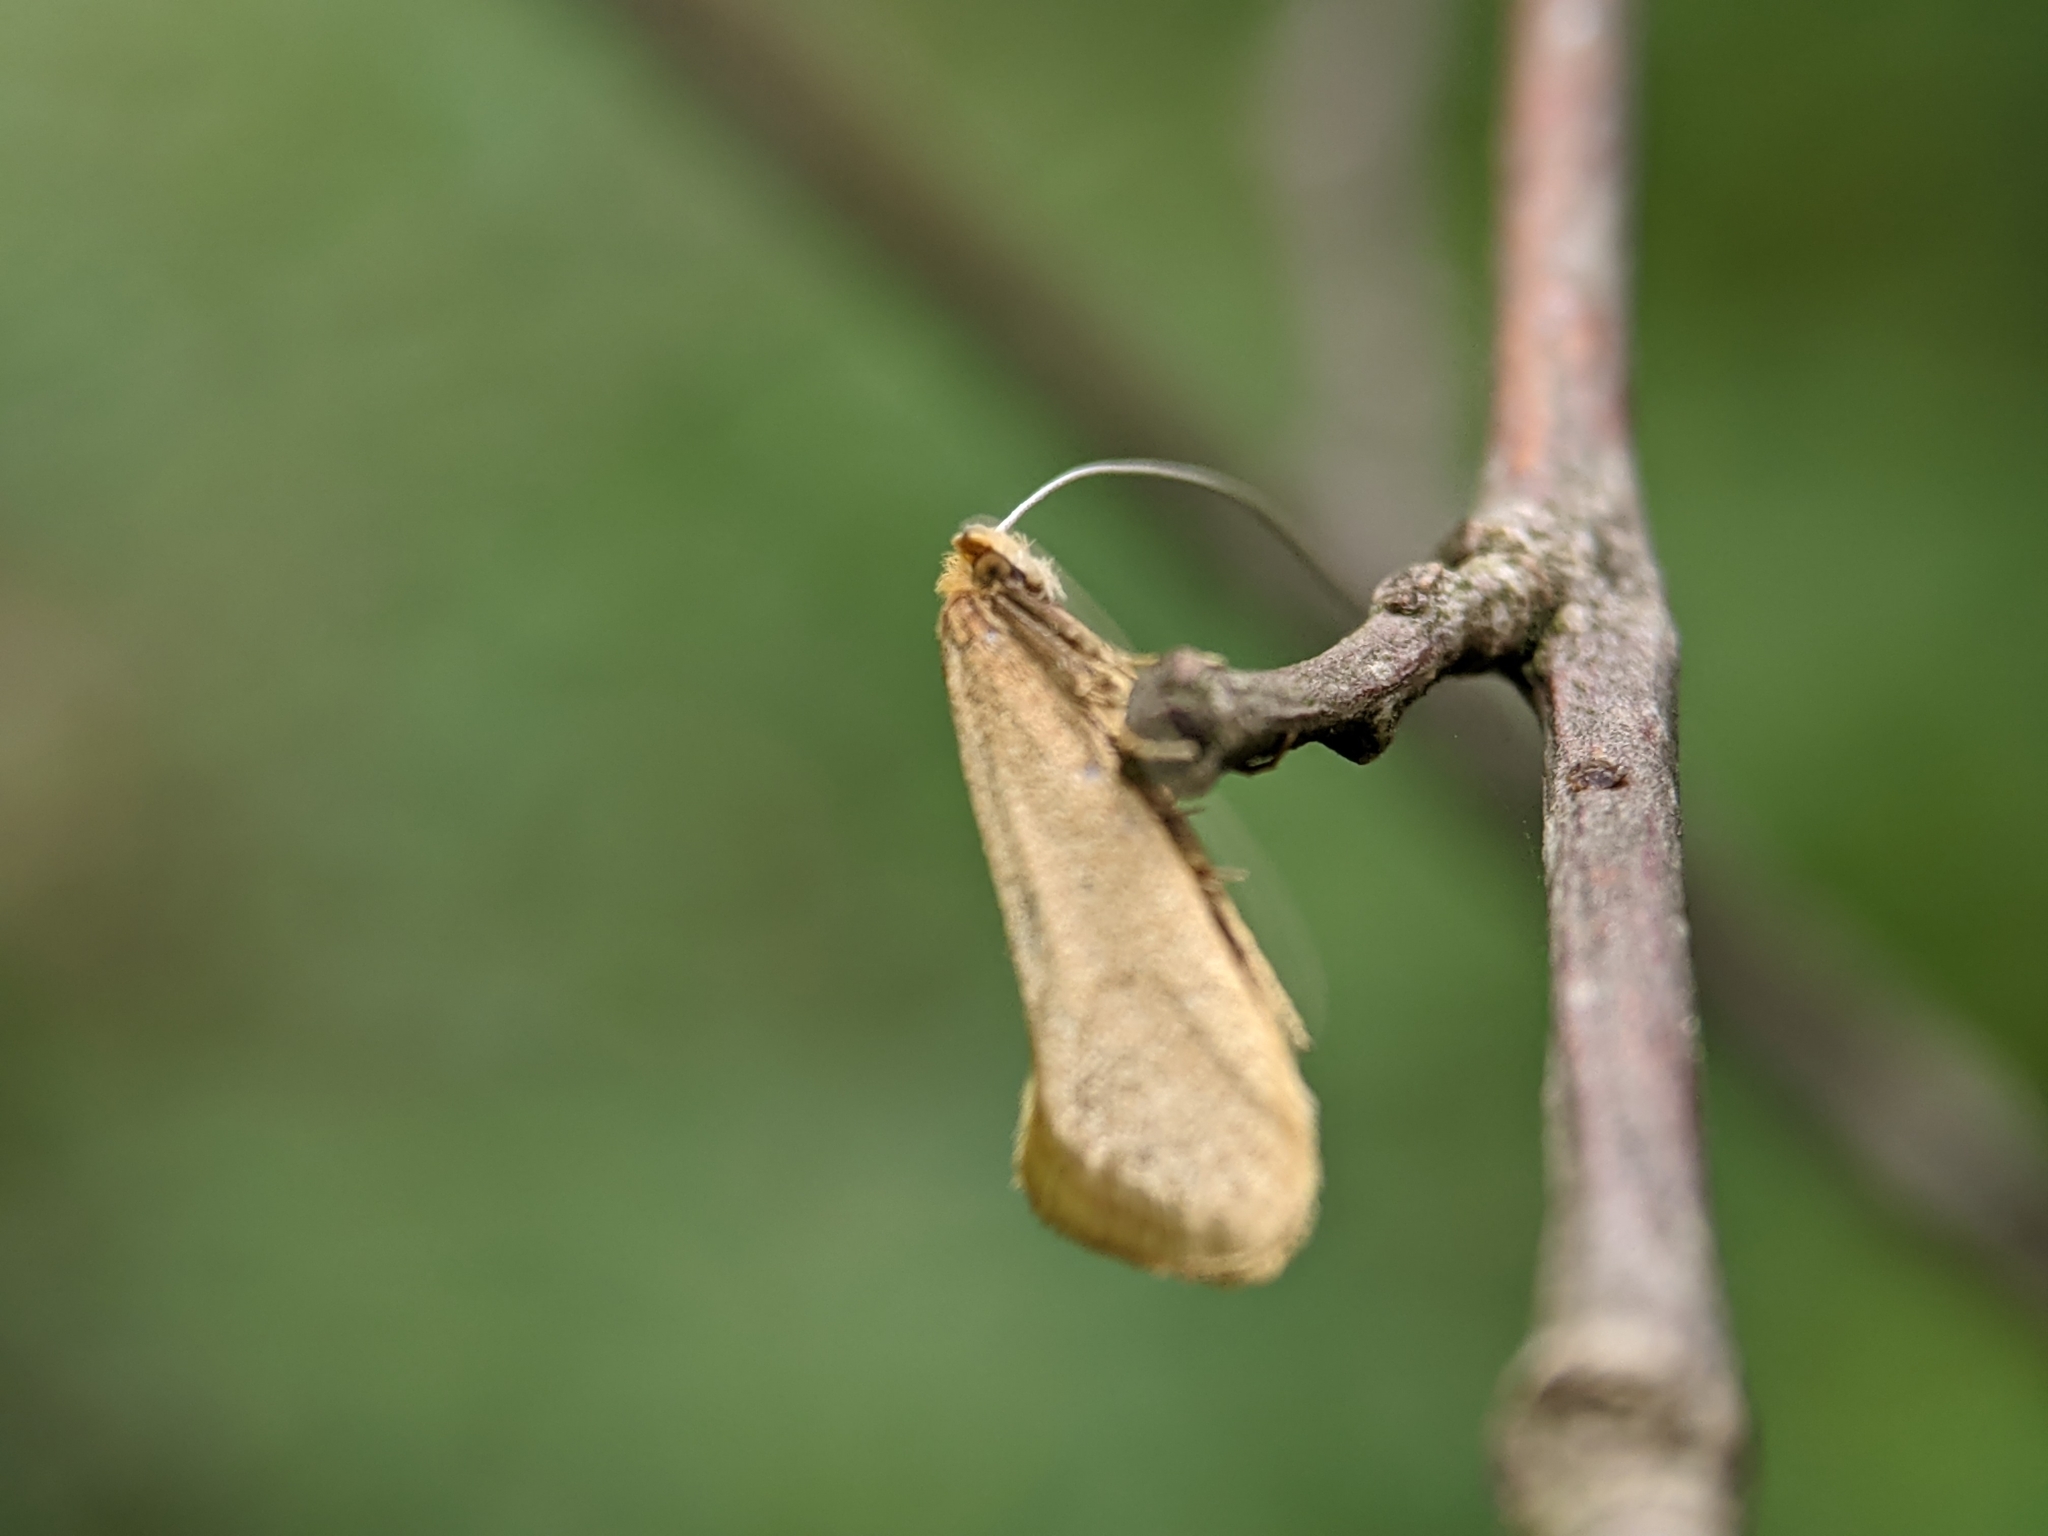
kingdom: Animalia
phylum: Arthropoda
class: Insecta
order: Lepidoptera
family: Adelidae
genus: Nematopogon
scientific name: Nematopogon swammerdamella
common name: Large long-horn
